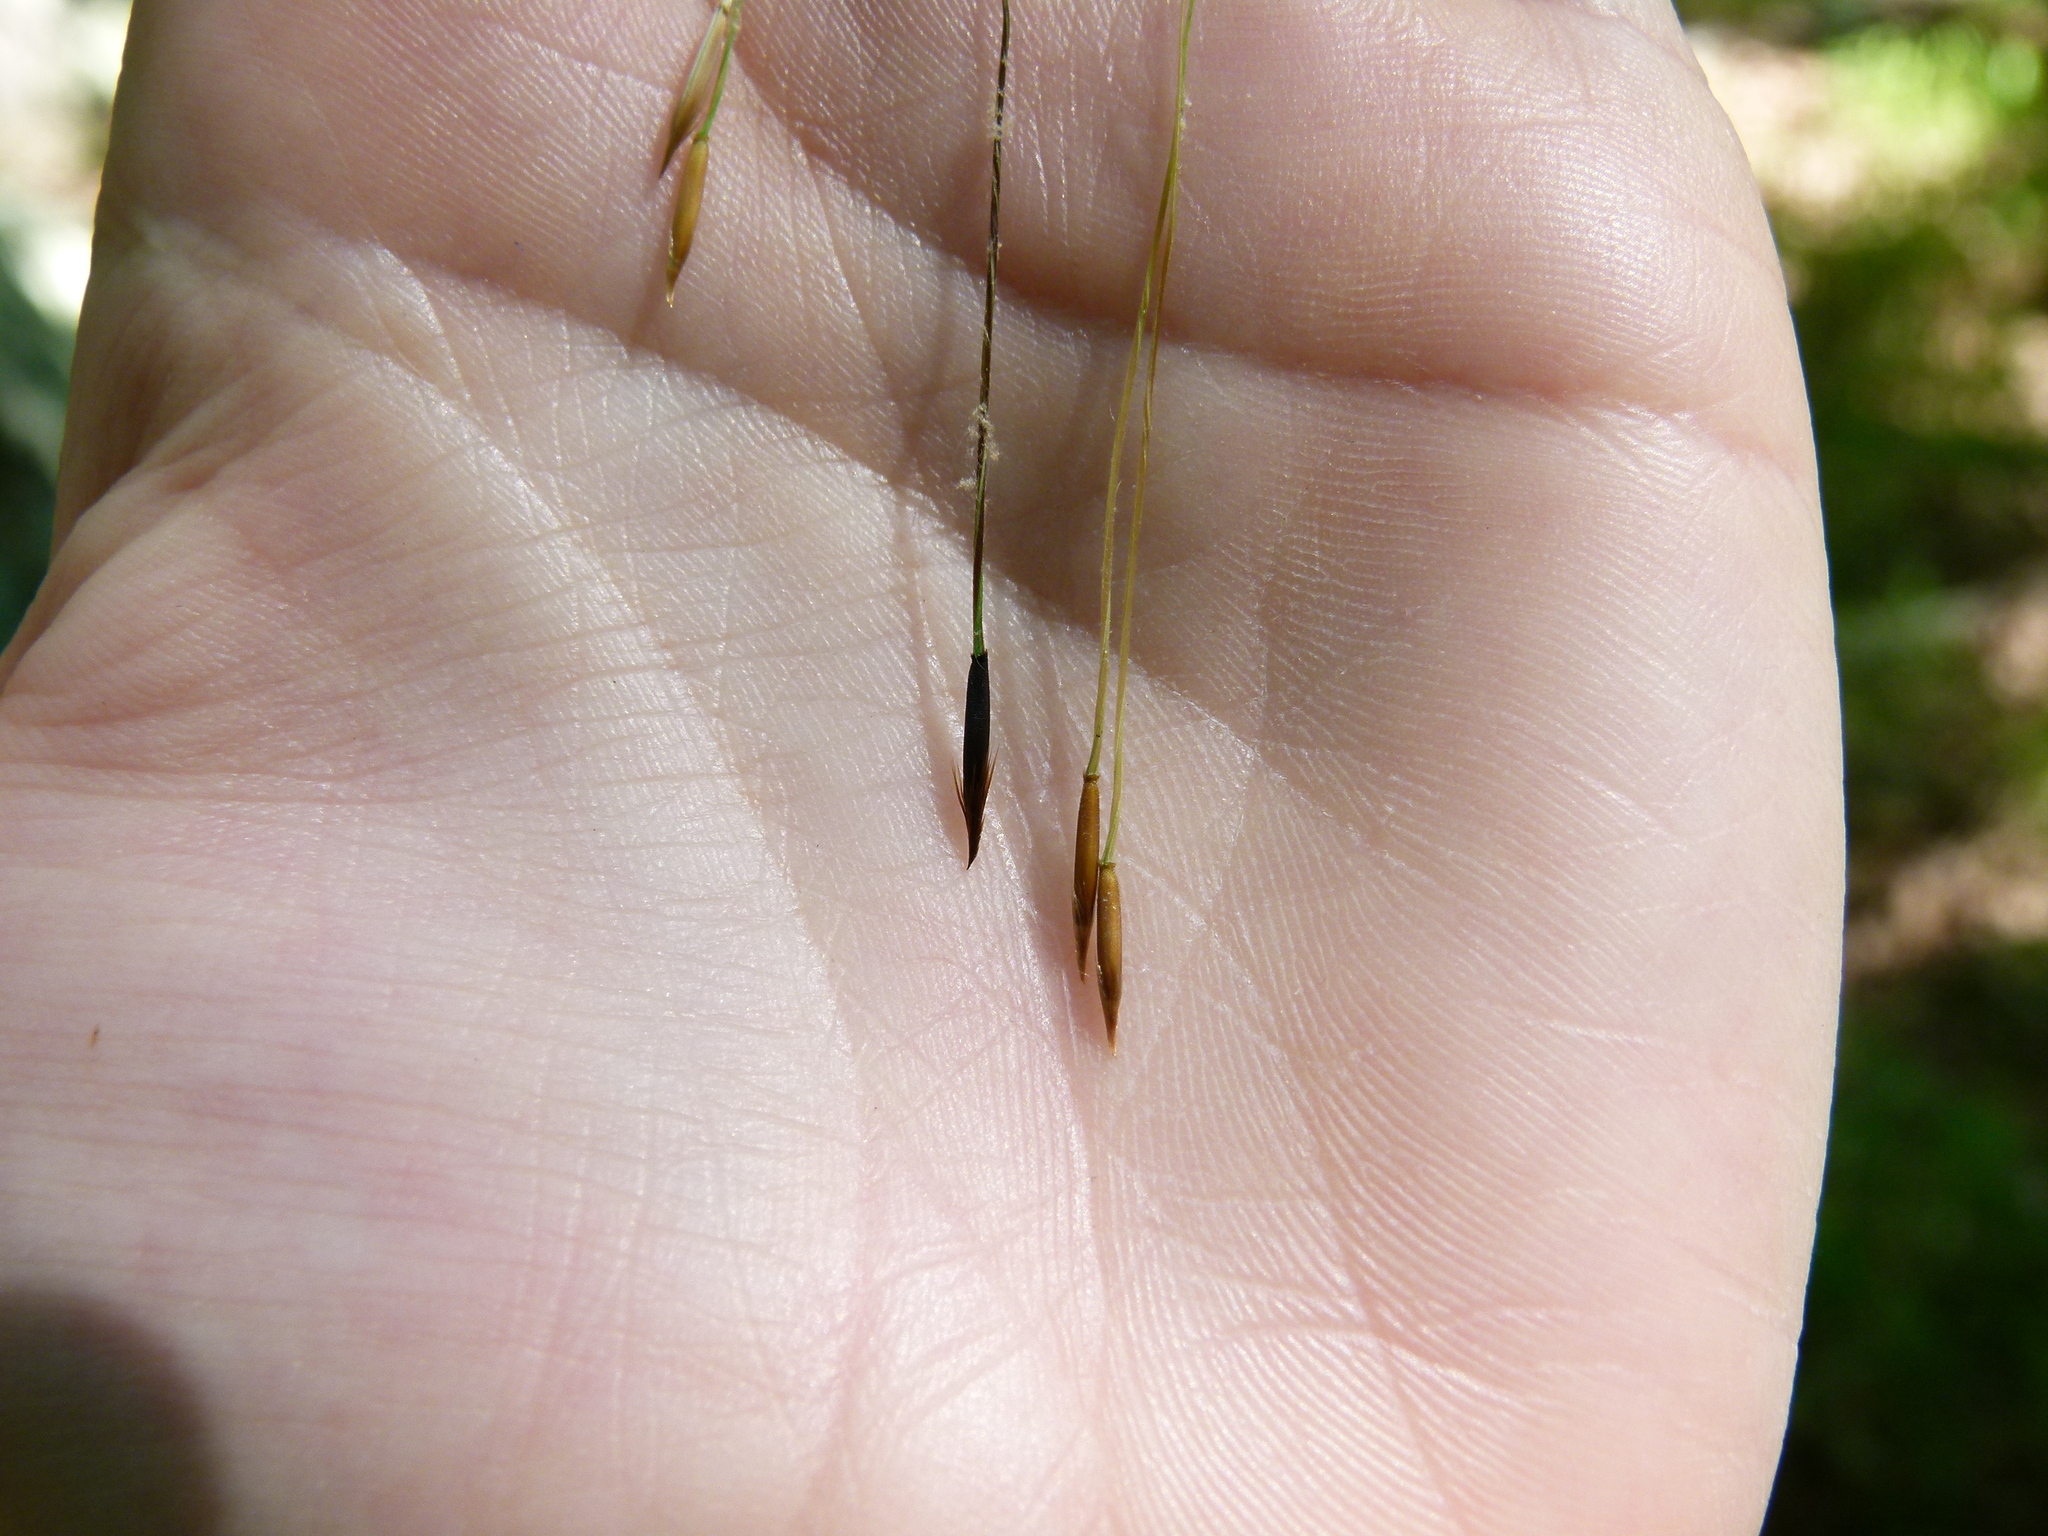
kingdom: Plantae
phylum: Tracheophyta
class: Liliopsida
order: Poales
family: Poaceae
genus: Piptochaetium
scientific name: Piptochaetium avenaceum
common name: Black bunchgrass
